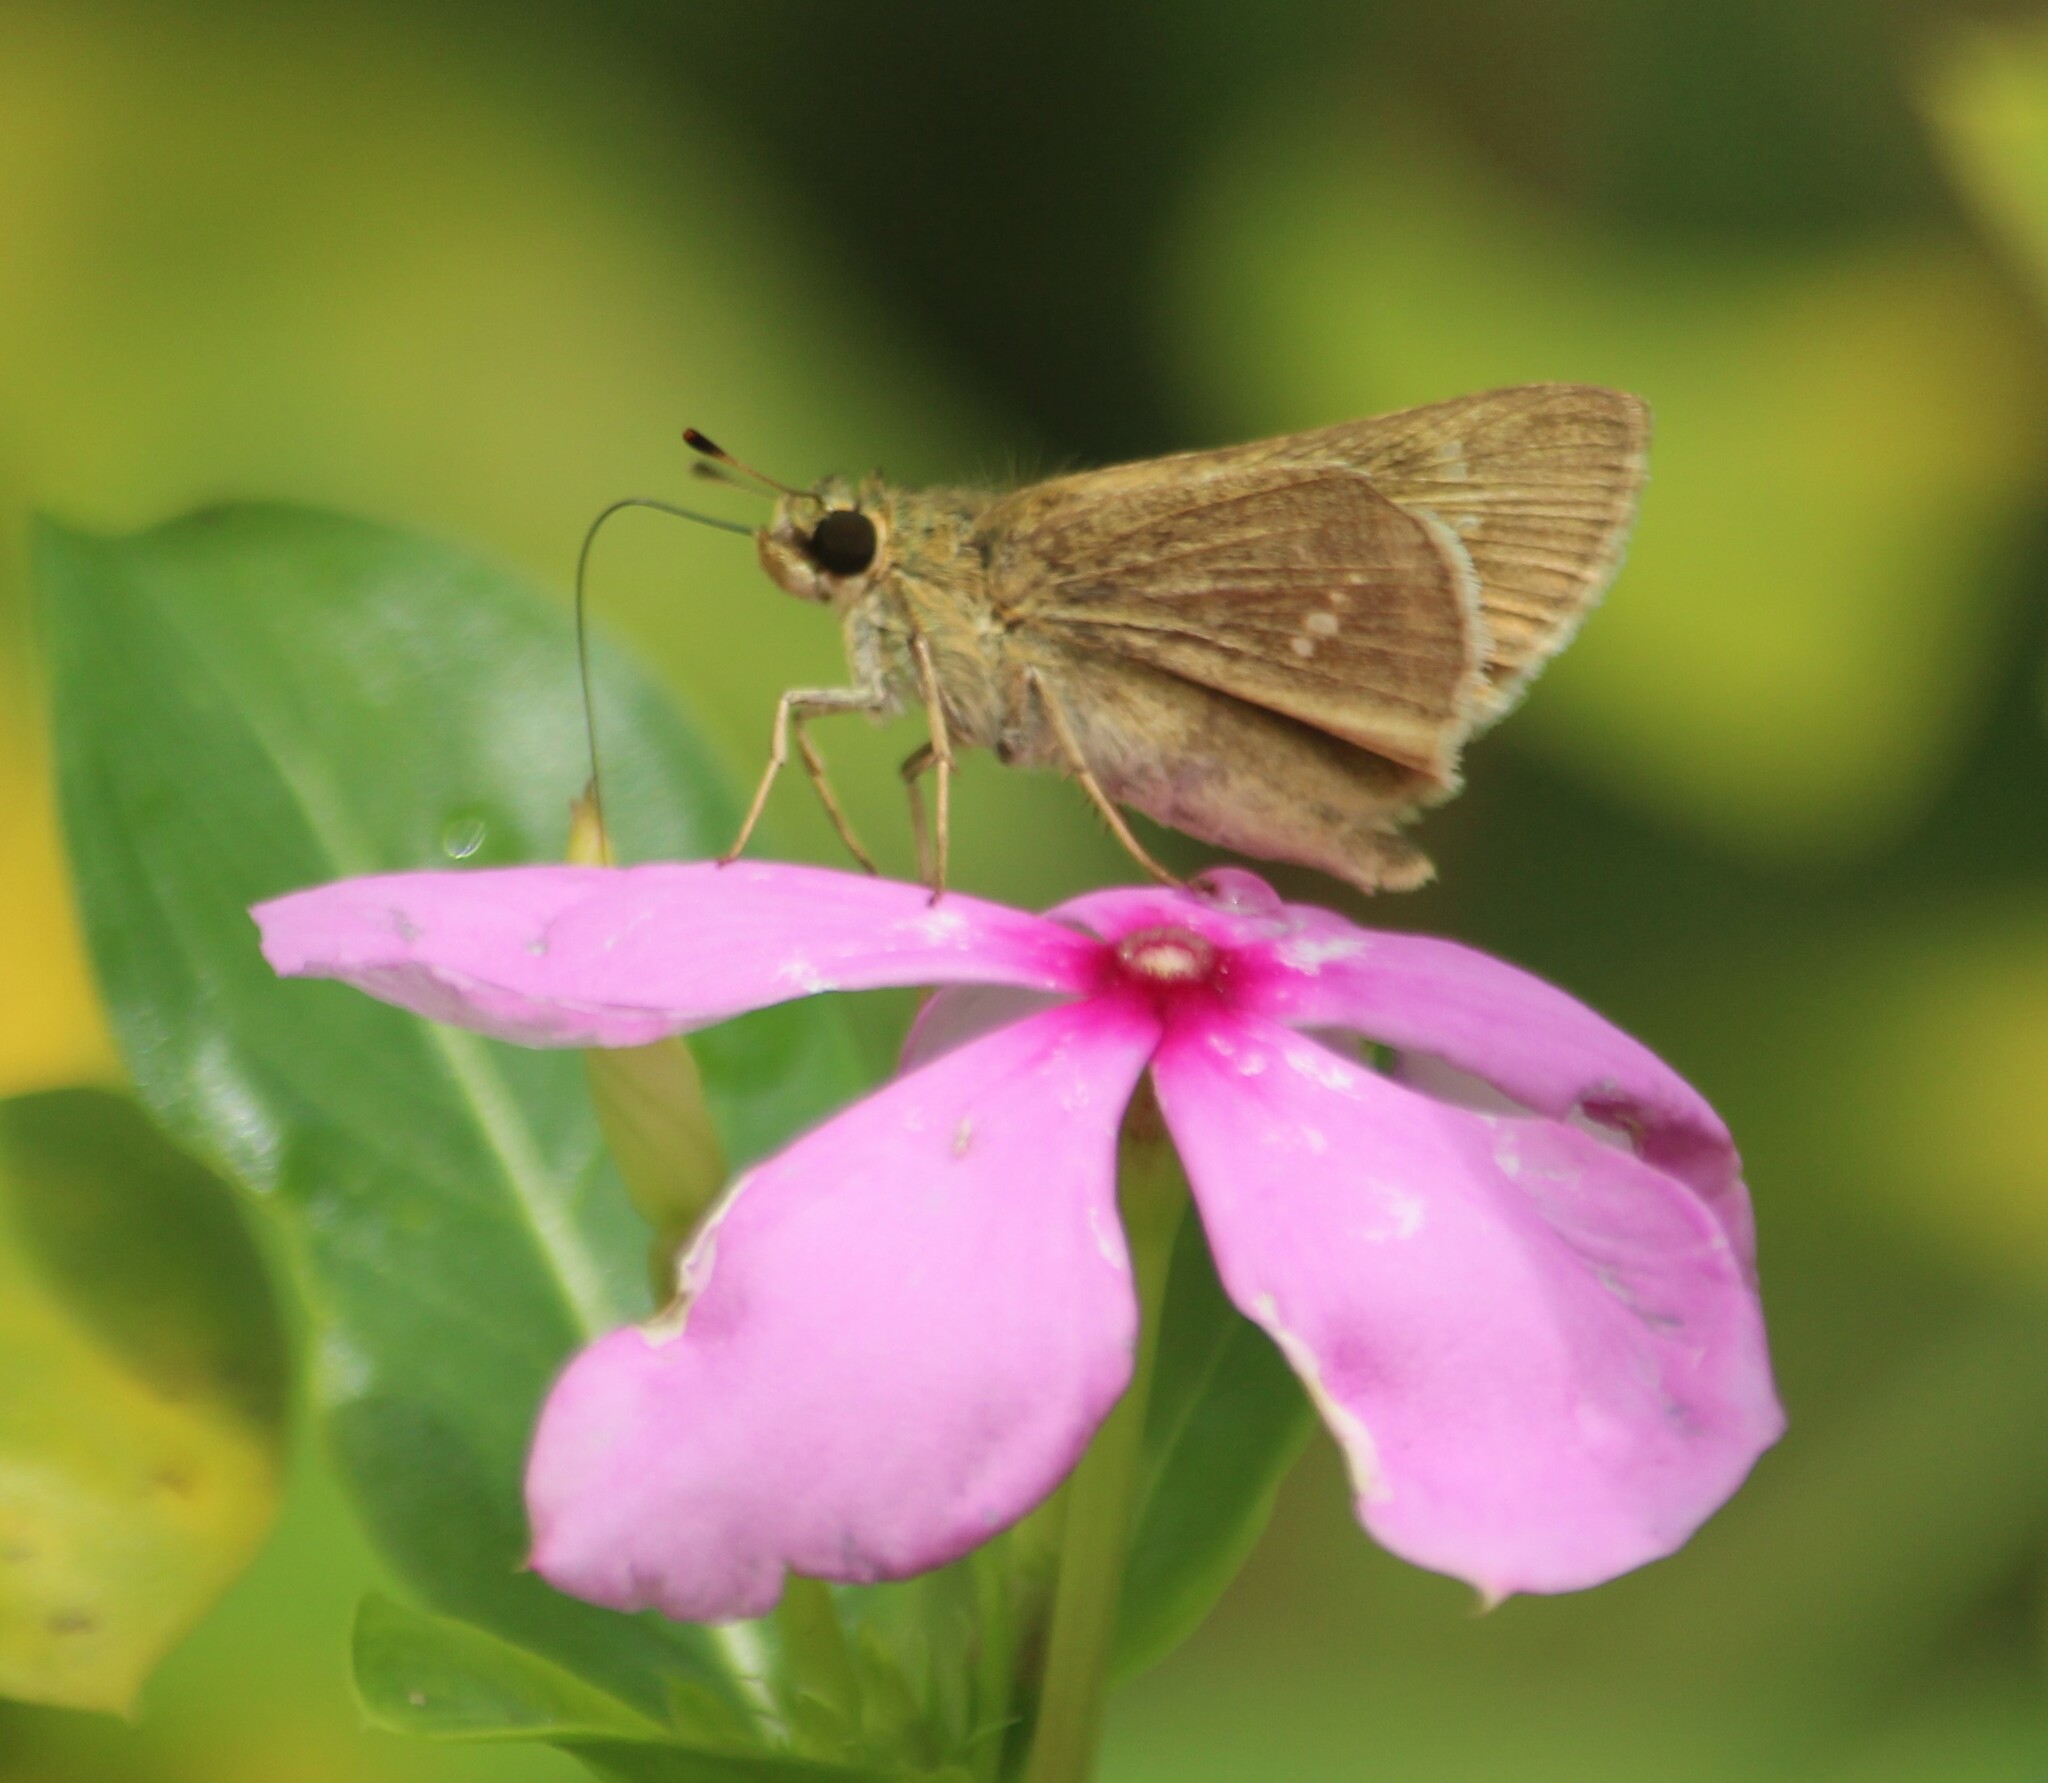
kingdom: Animalia
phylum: Arthropoda
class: Insecta
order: Lepidoptera
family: Hesperiidae
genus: Parnara
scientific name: Parnara naso
